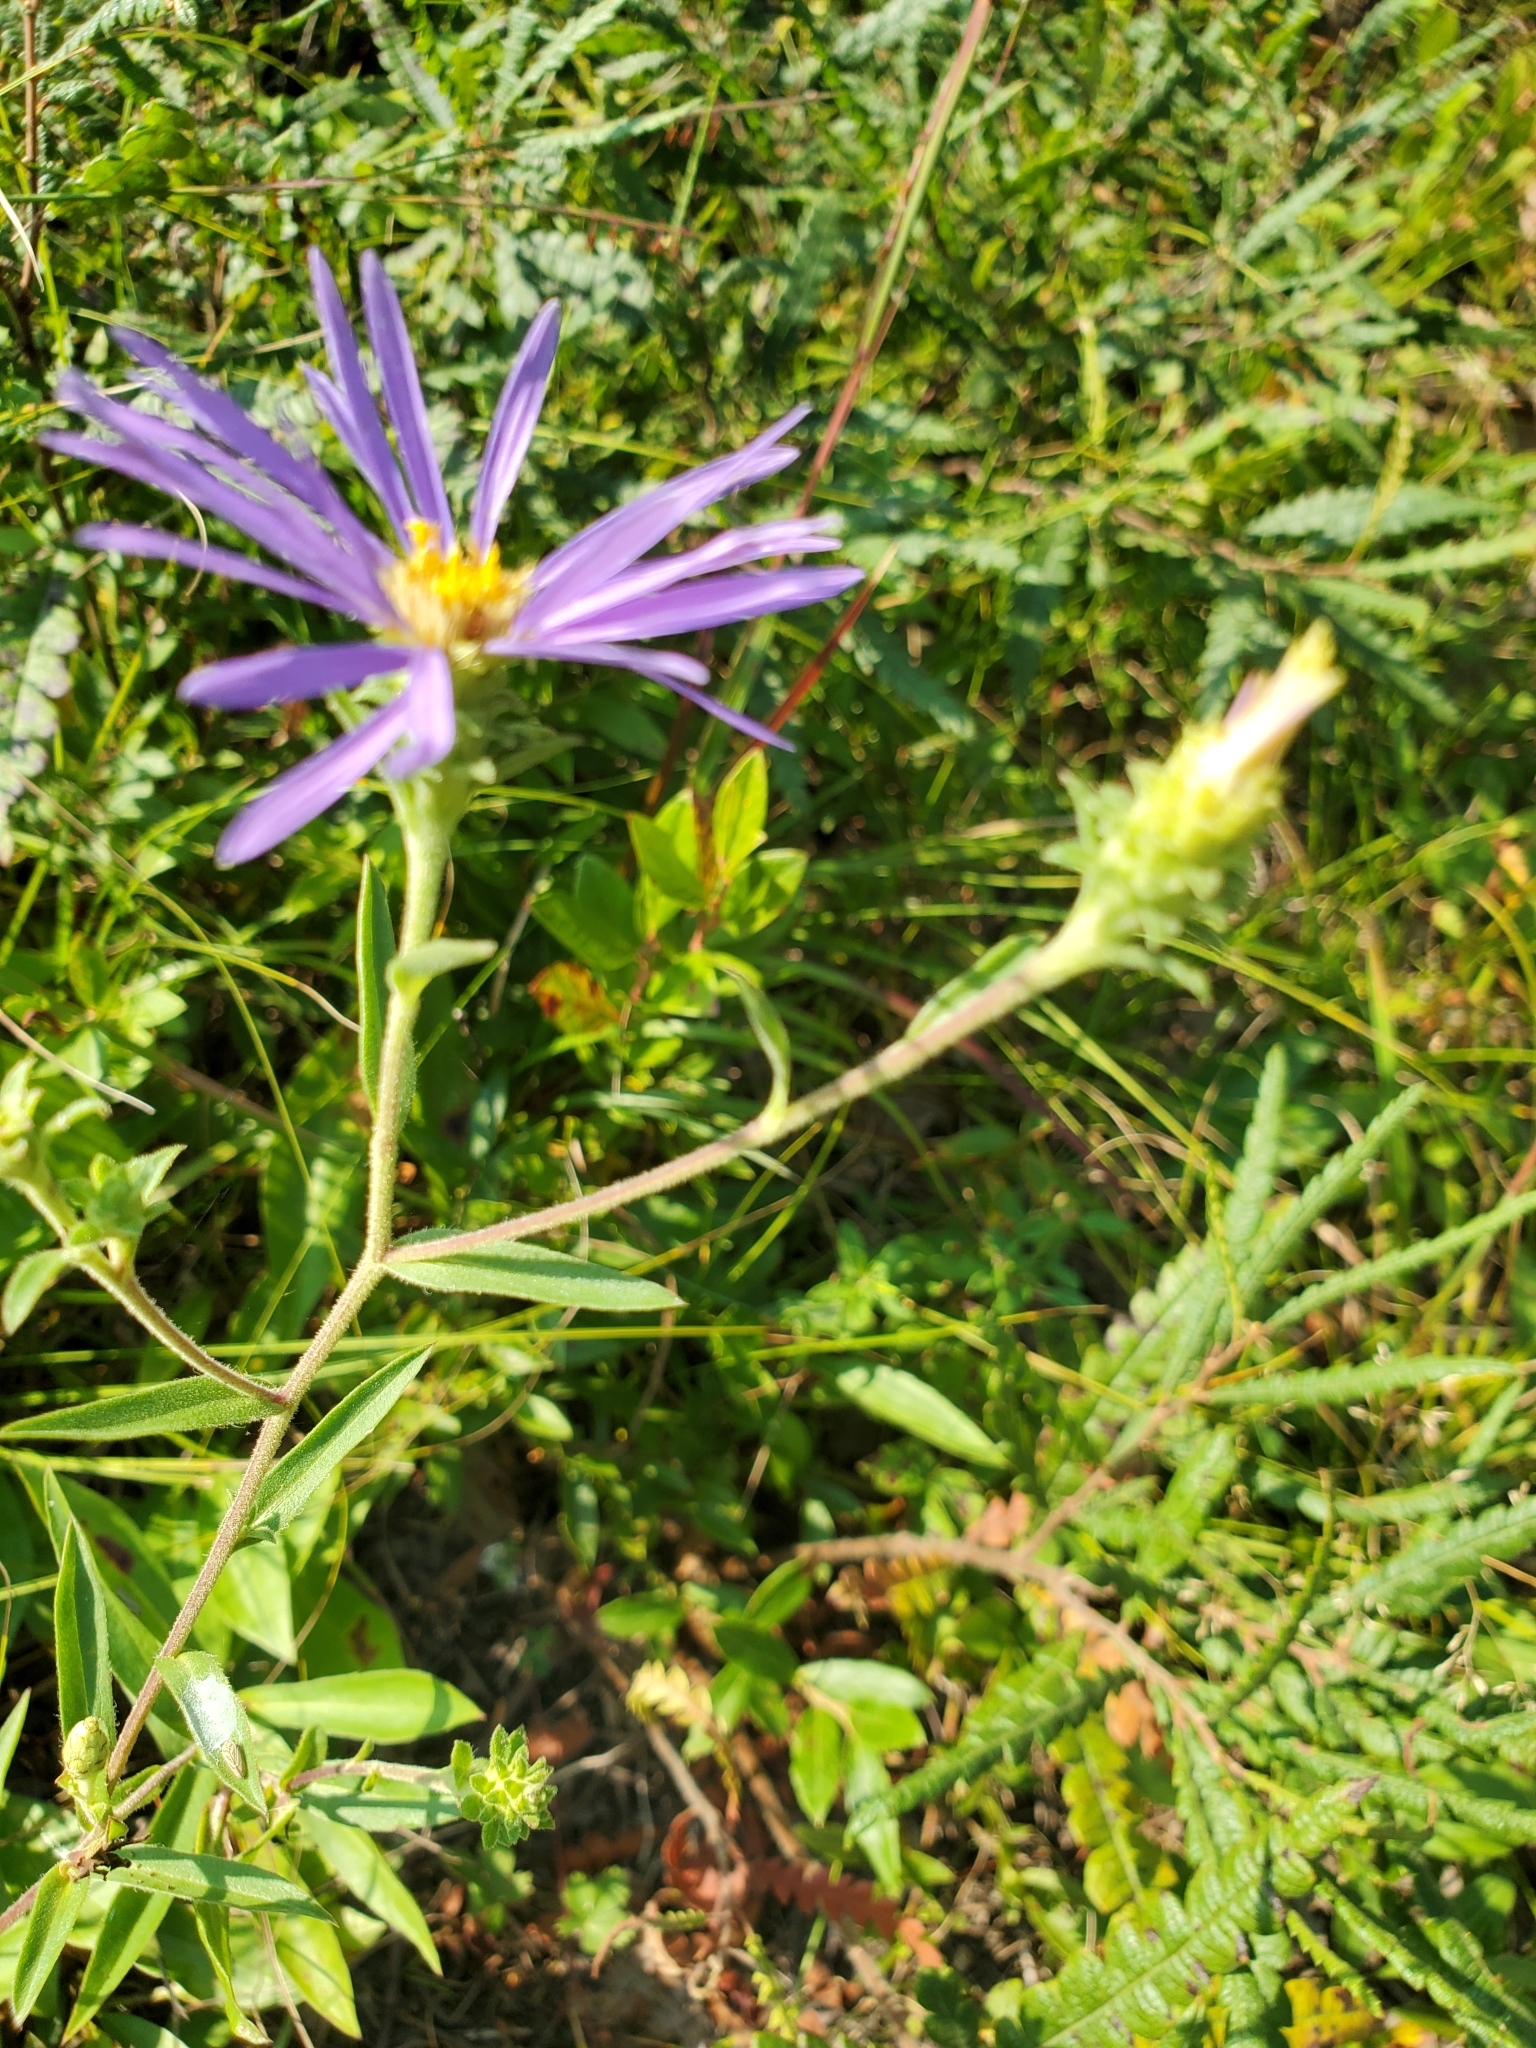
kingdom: Plantae
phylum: Tracheophyta
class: Magnoliopsida
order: Asterales
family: Asteraceae
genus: Eurybia
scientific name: Eurybia spectabilis
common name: Low showy aster
